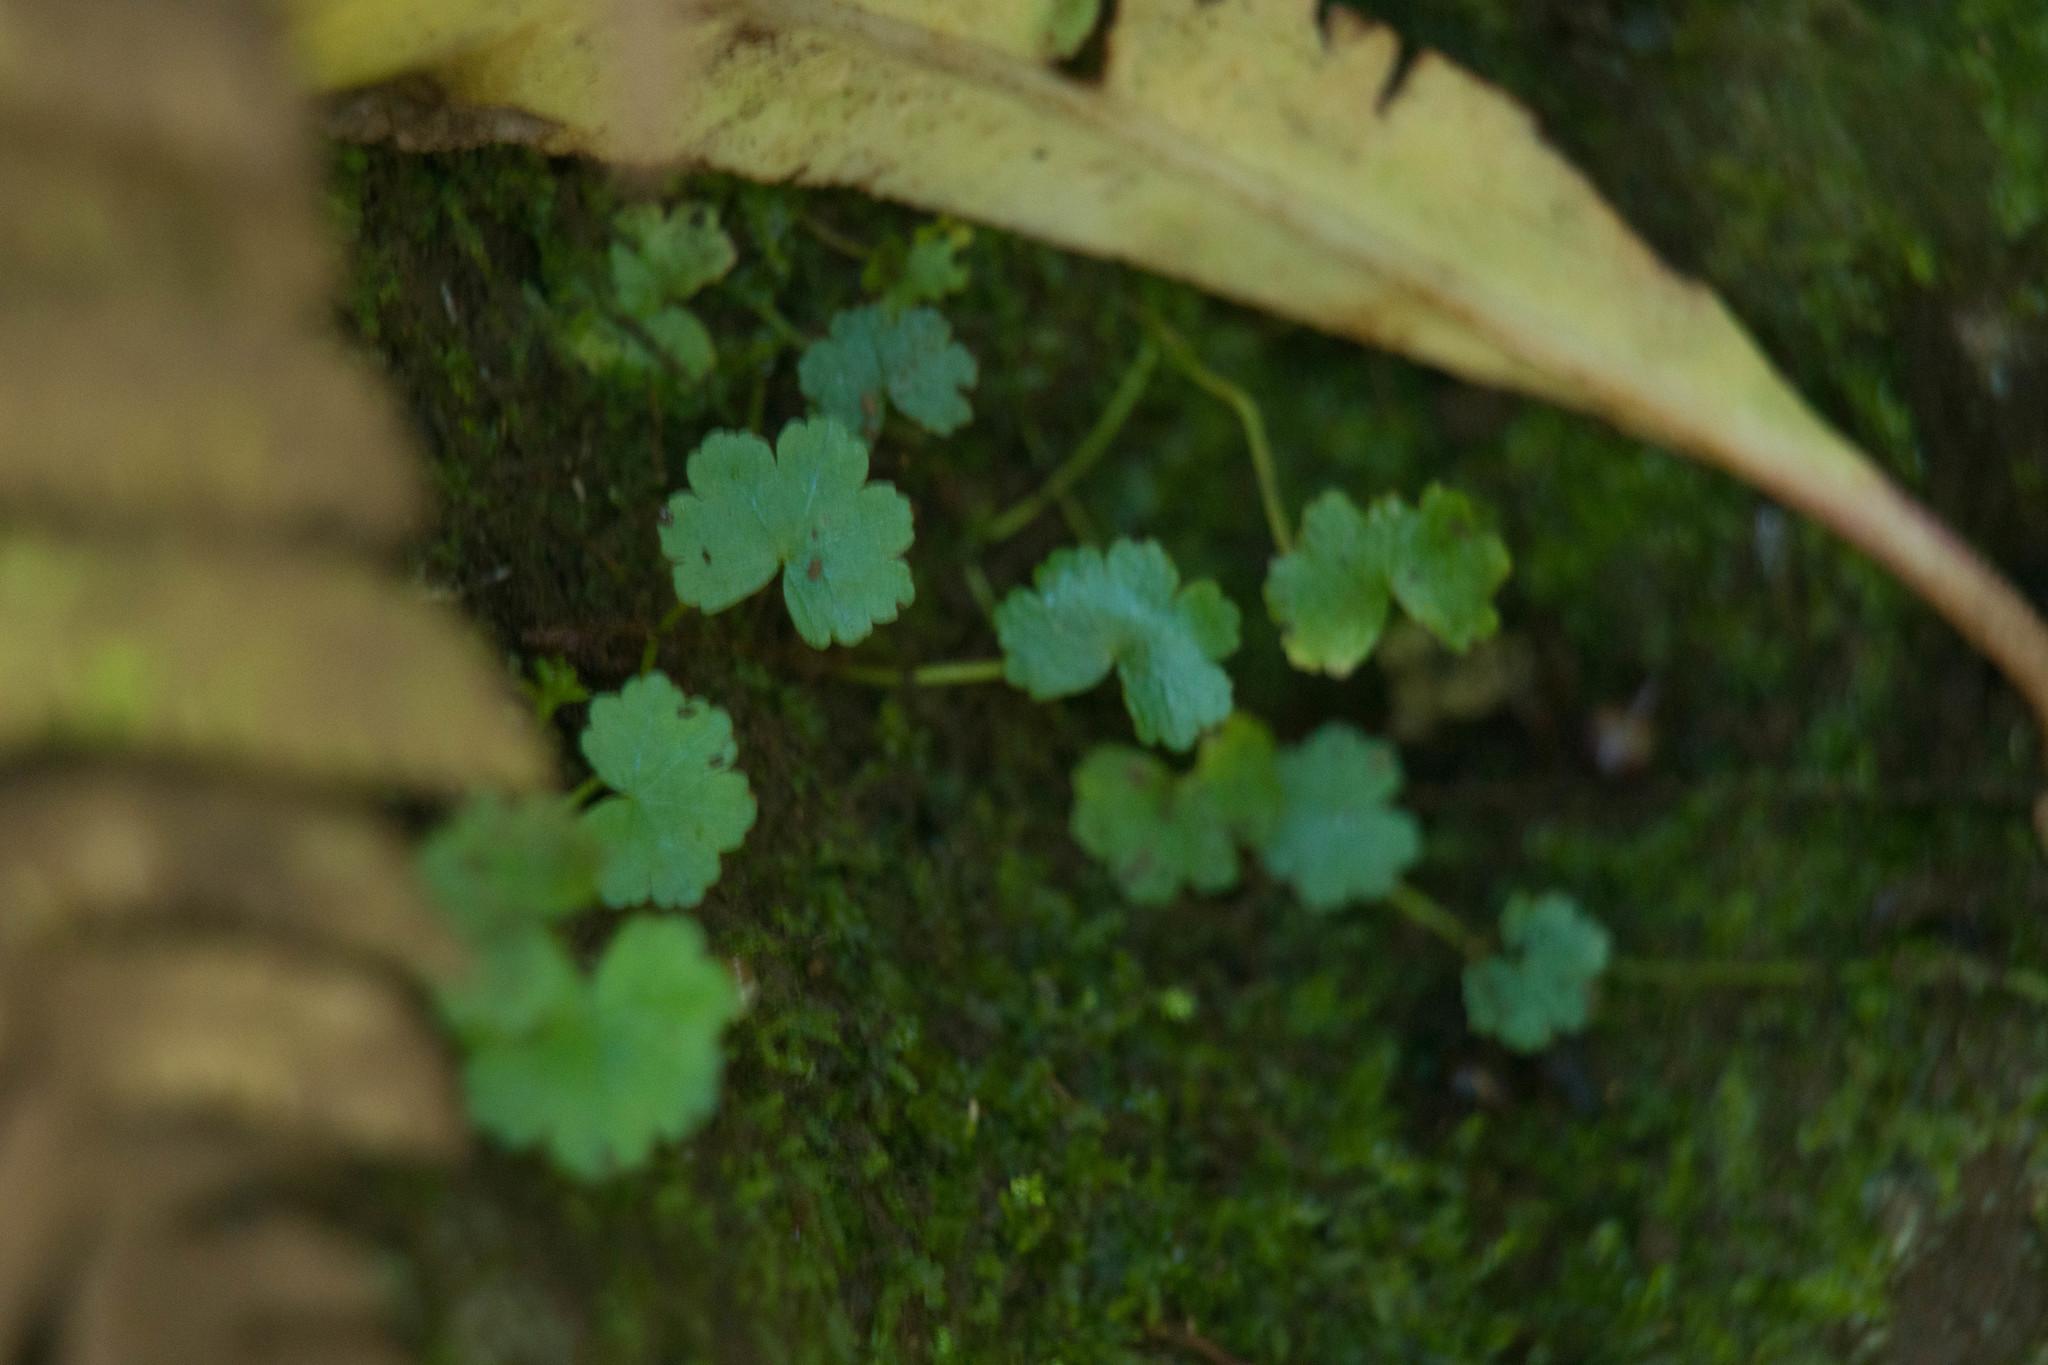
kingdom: Plantae
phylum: Tracheophyta
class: Magnoliopsida
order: Apiales
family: Araliaceae
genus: Hydrocotyle
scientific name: Hydrocotyle sibthorpioides
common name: Lawn marshpennywort
